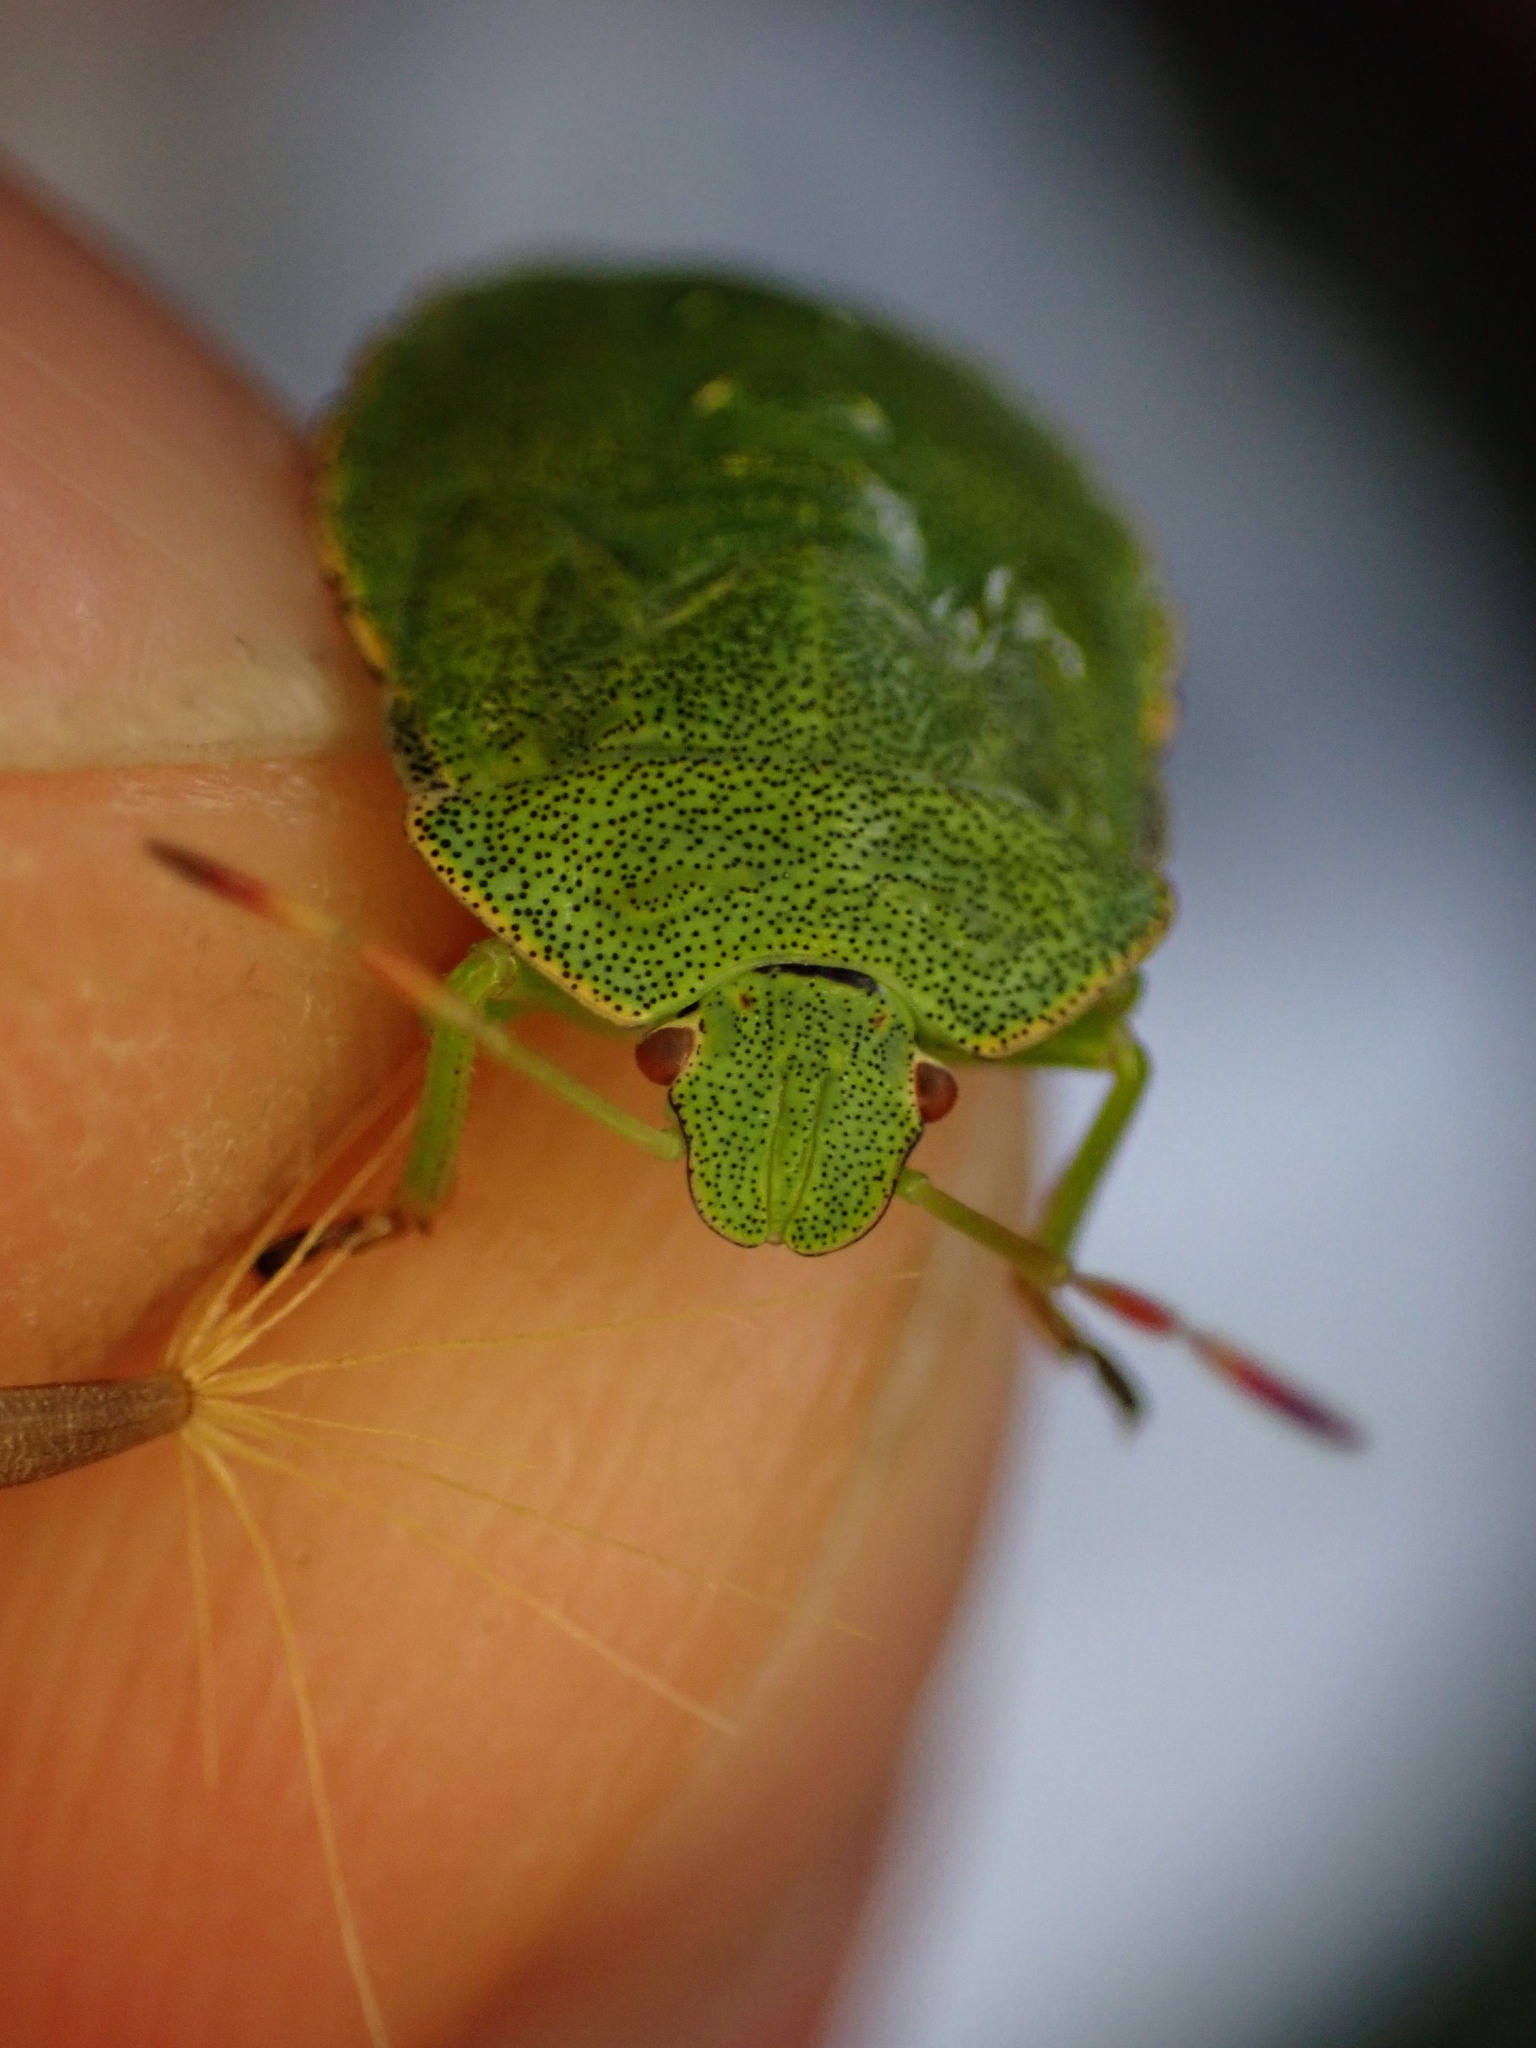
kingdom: Animalia
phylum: Arthropoda
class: Insecta
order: Hemiptera
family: Pentatomidae
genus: Palomena
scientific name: Palomena prasina
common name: Green shieldbug
